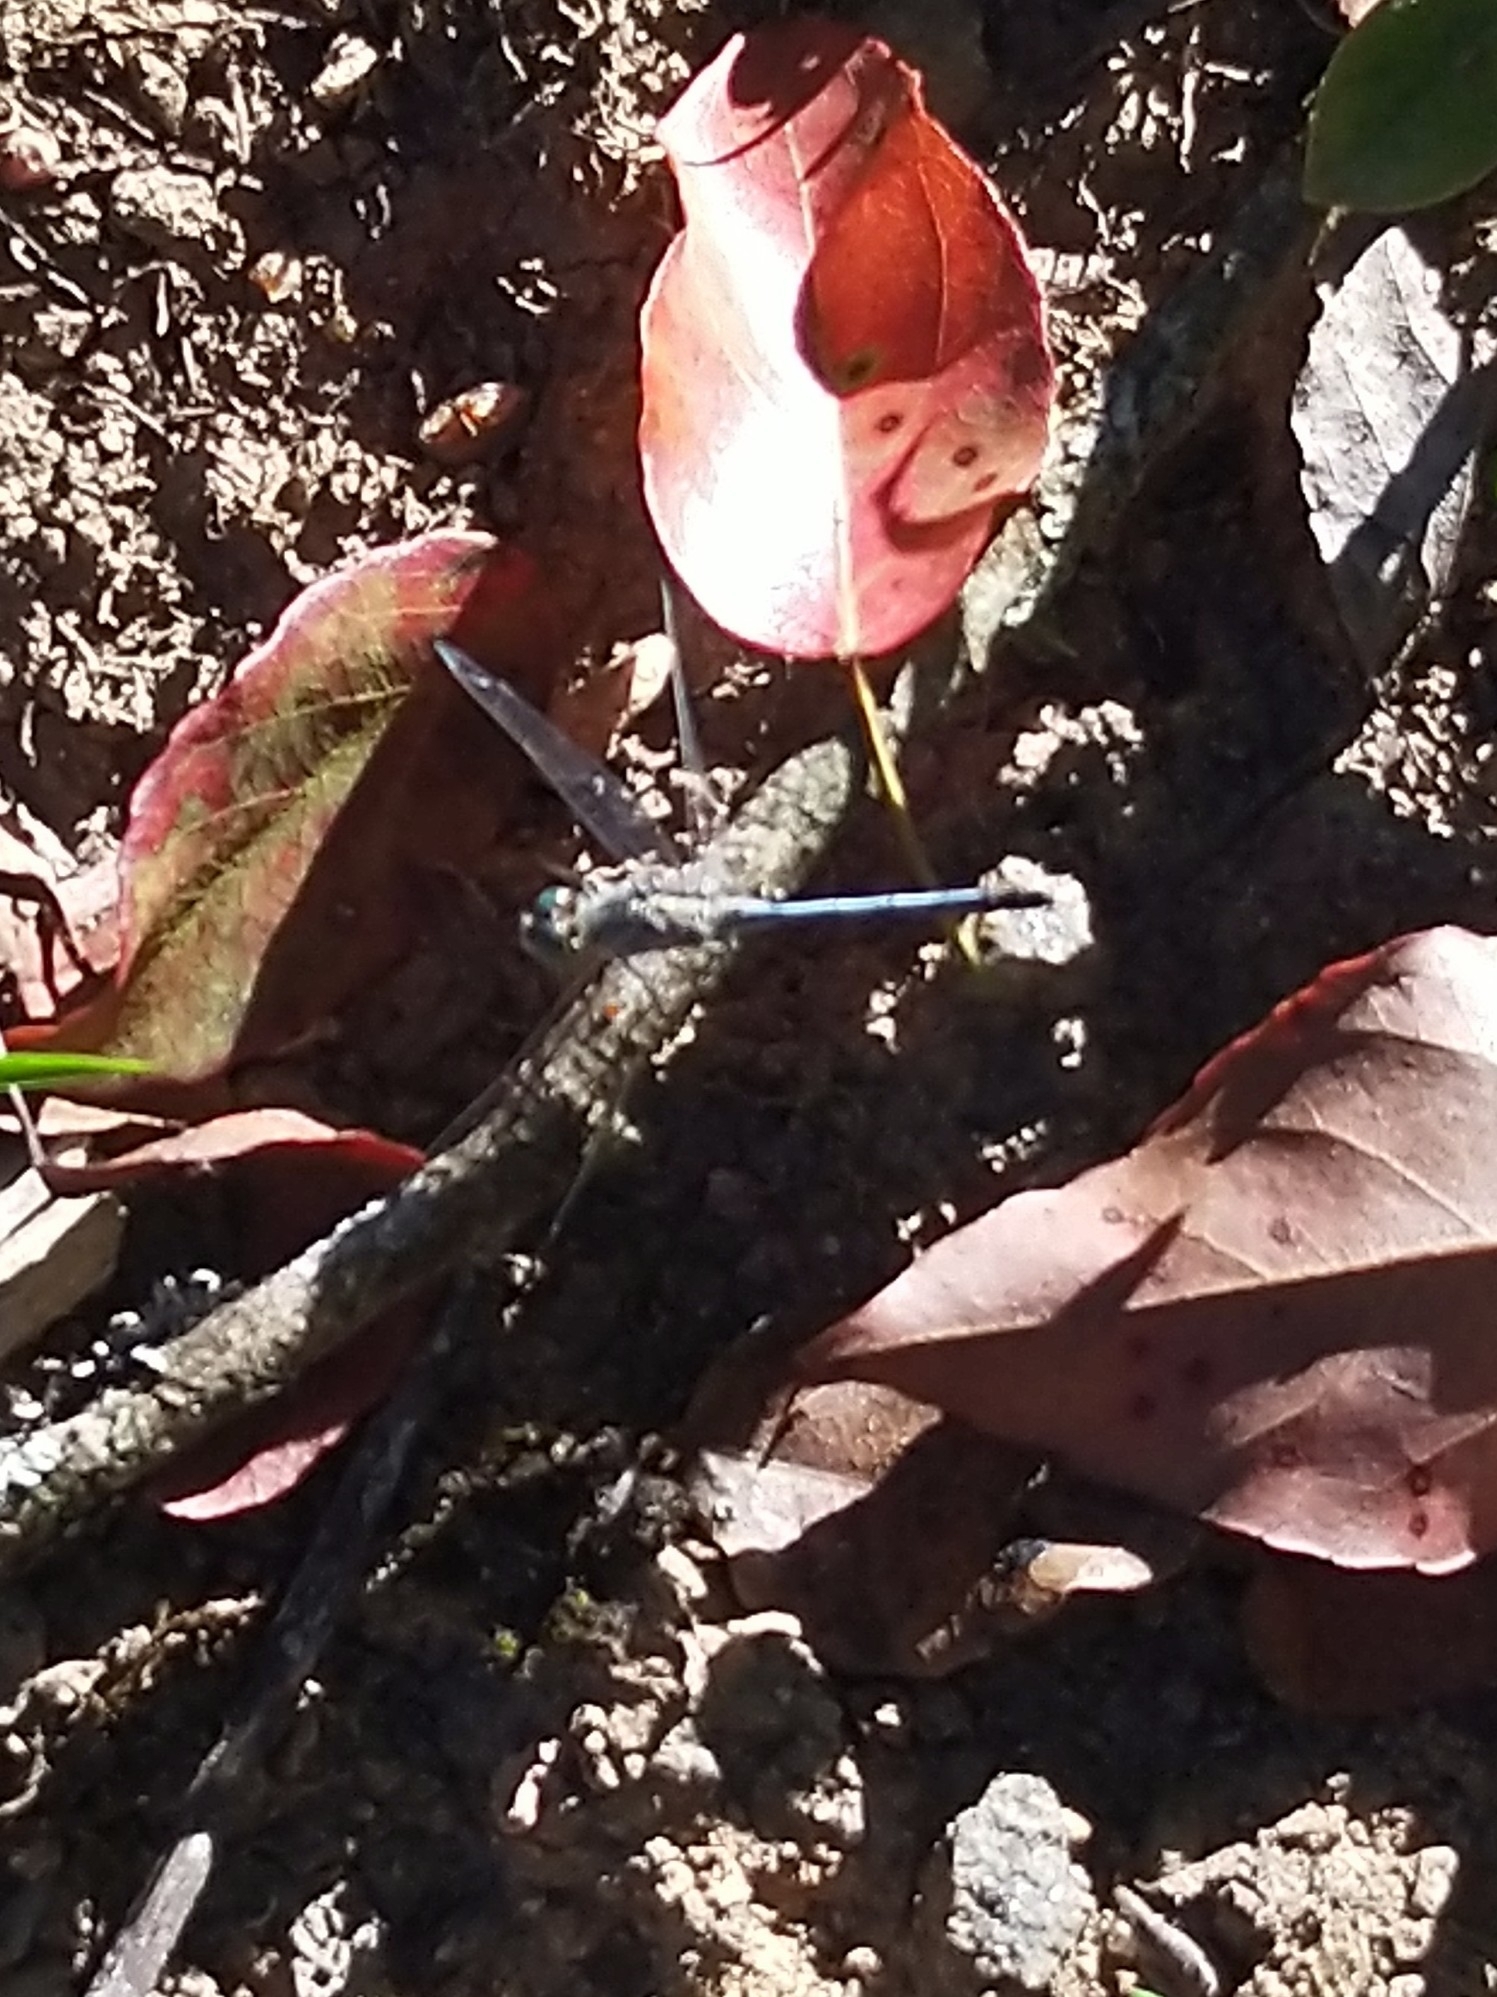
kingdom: Animalia
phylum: Arthropoda
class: Insecta
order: Odonata
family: Libellulidae
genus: Diplacodes
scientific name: Diplacodes trivialis
